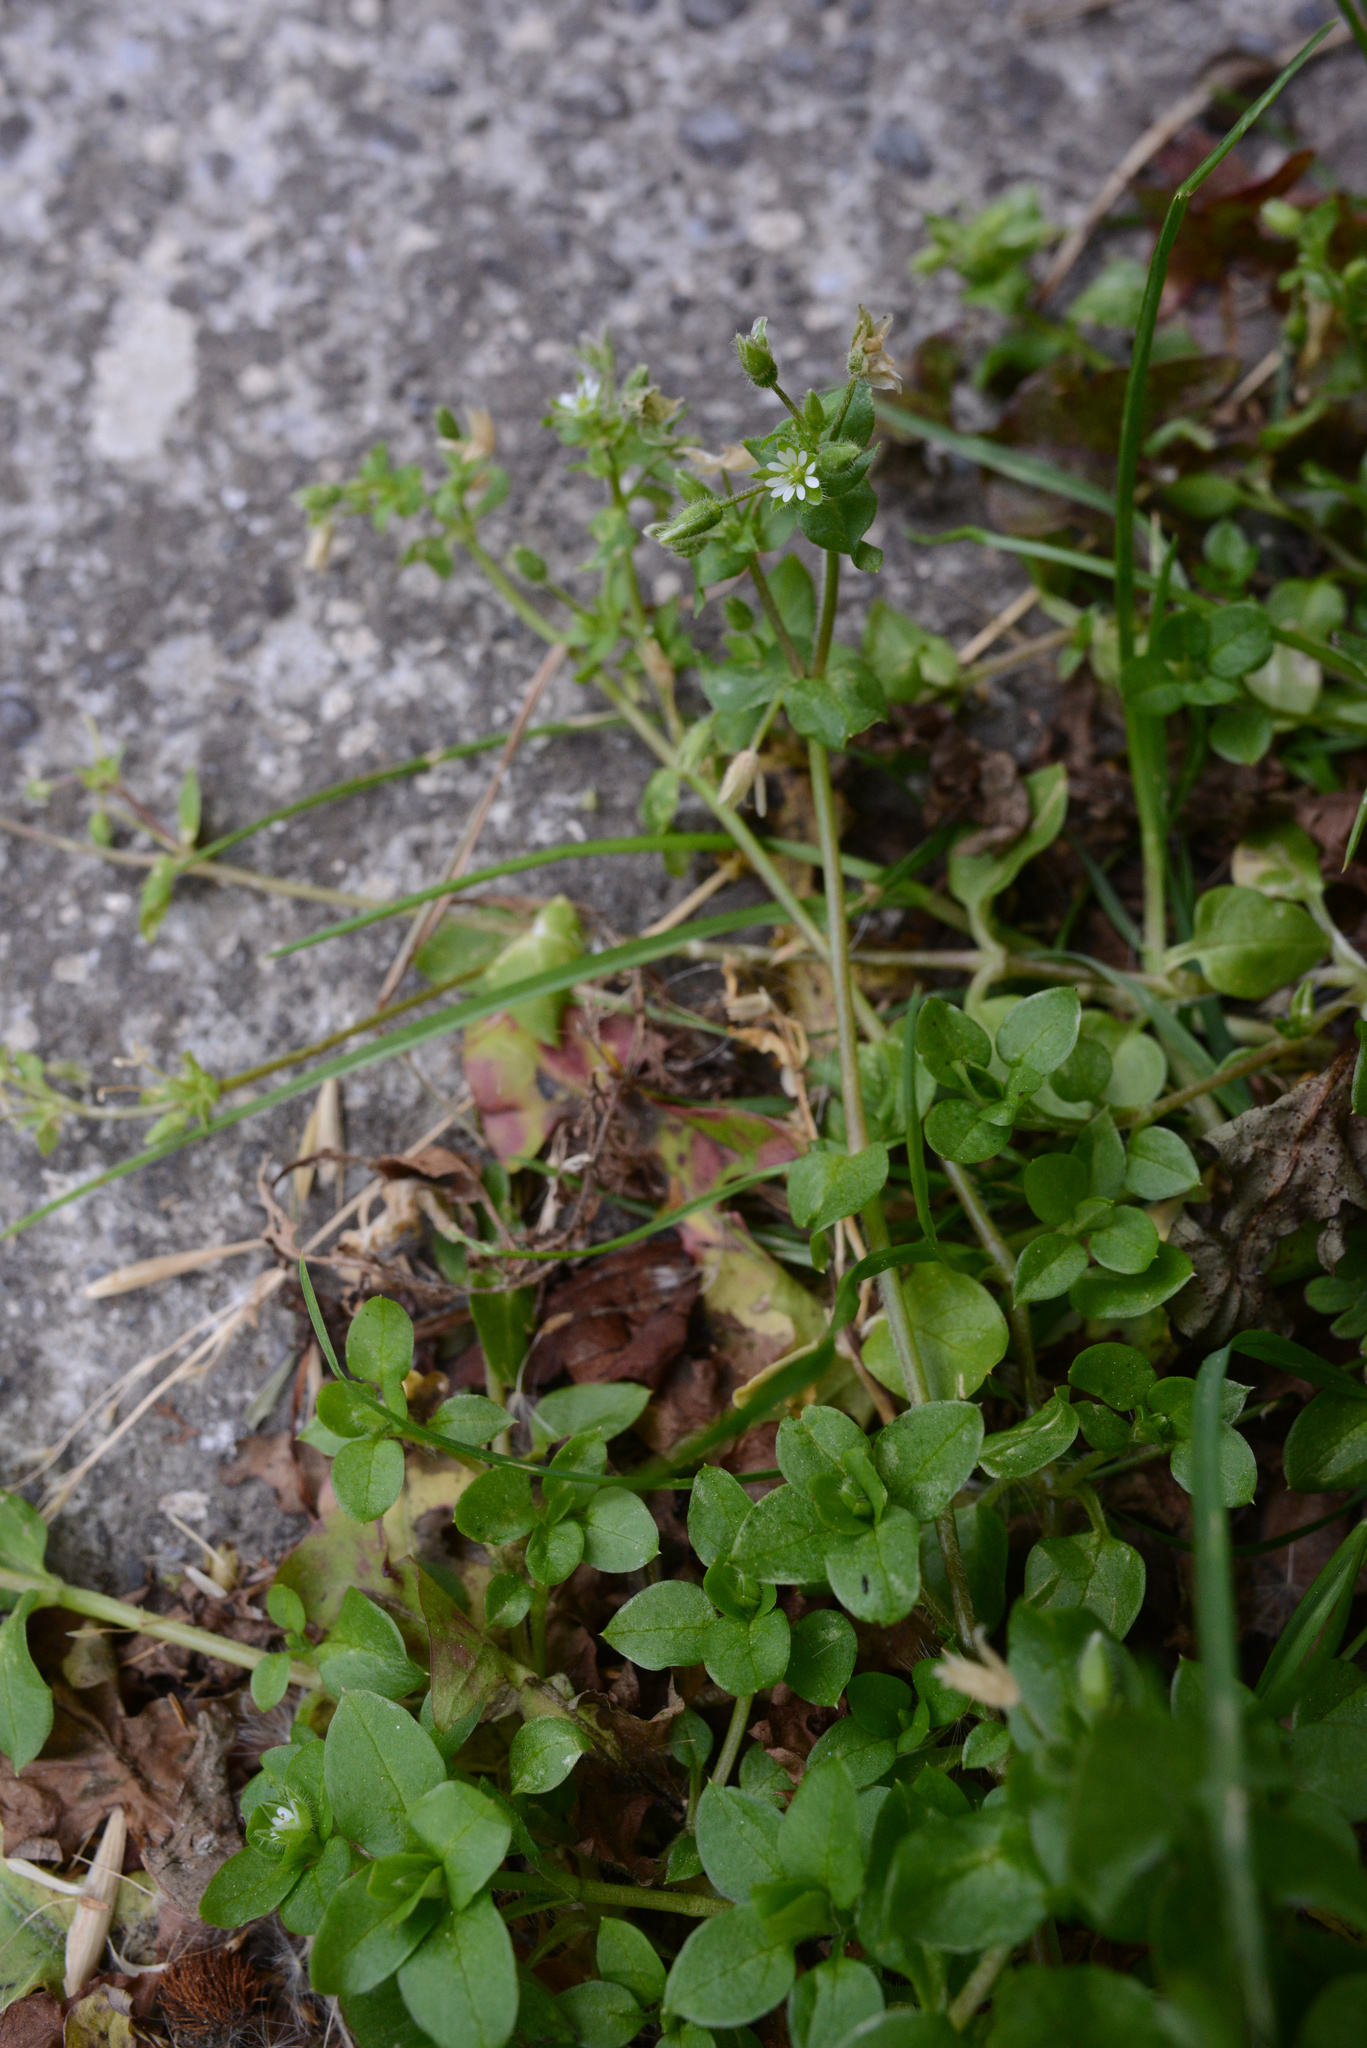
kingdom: Plantae
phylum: Tracheophyta
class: Magnoliopsida
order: Caryophyllales
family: Caryophyllaceae
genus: Stellaria
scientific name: Stellaria media
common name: Common chickweed
